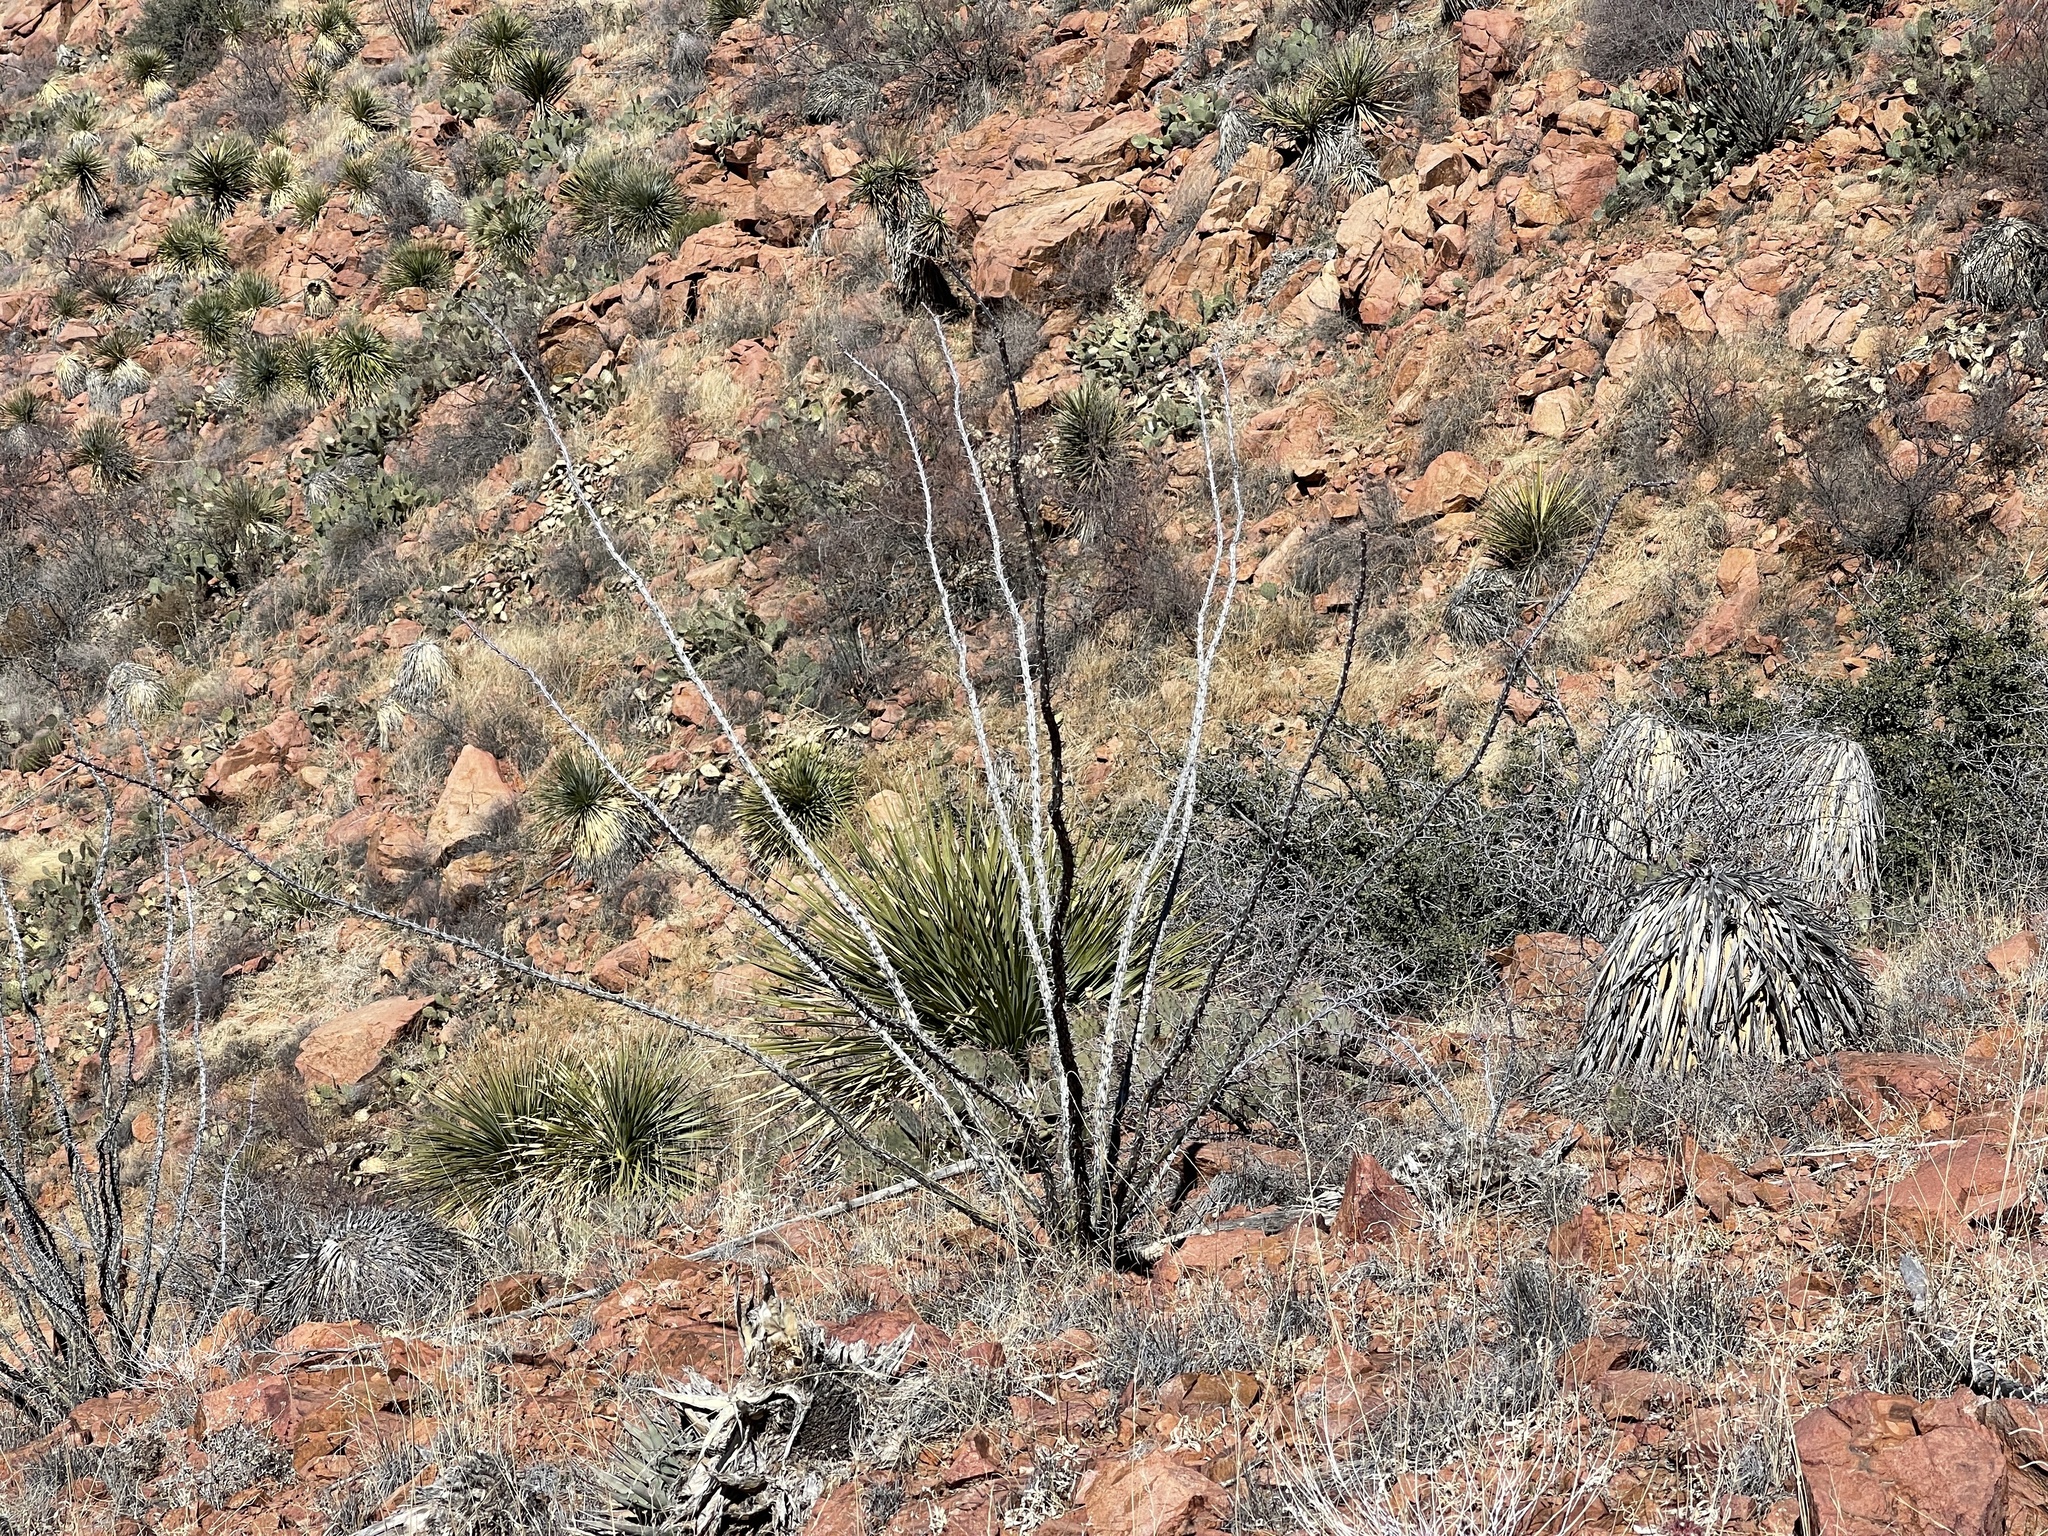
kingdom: Plantae
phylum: Tracheophyta
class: Magnoliopsida
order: Ericales
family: Fouquieriaceae
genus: Fouquieria
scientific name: Fouquieria splendens
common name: Vine-cactus
